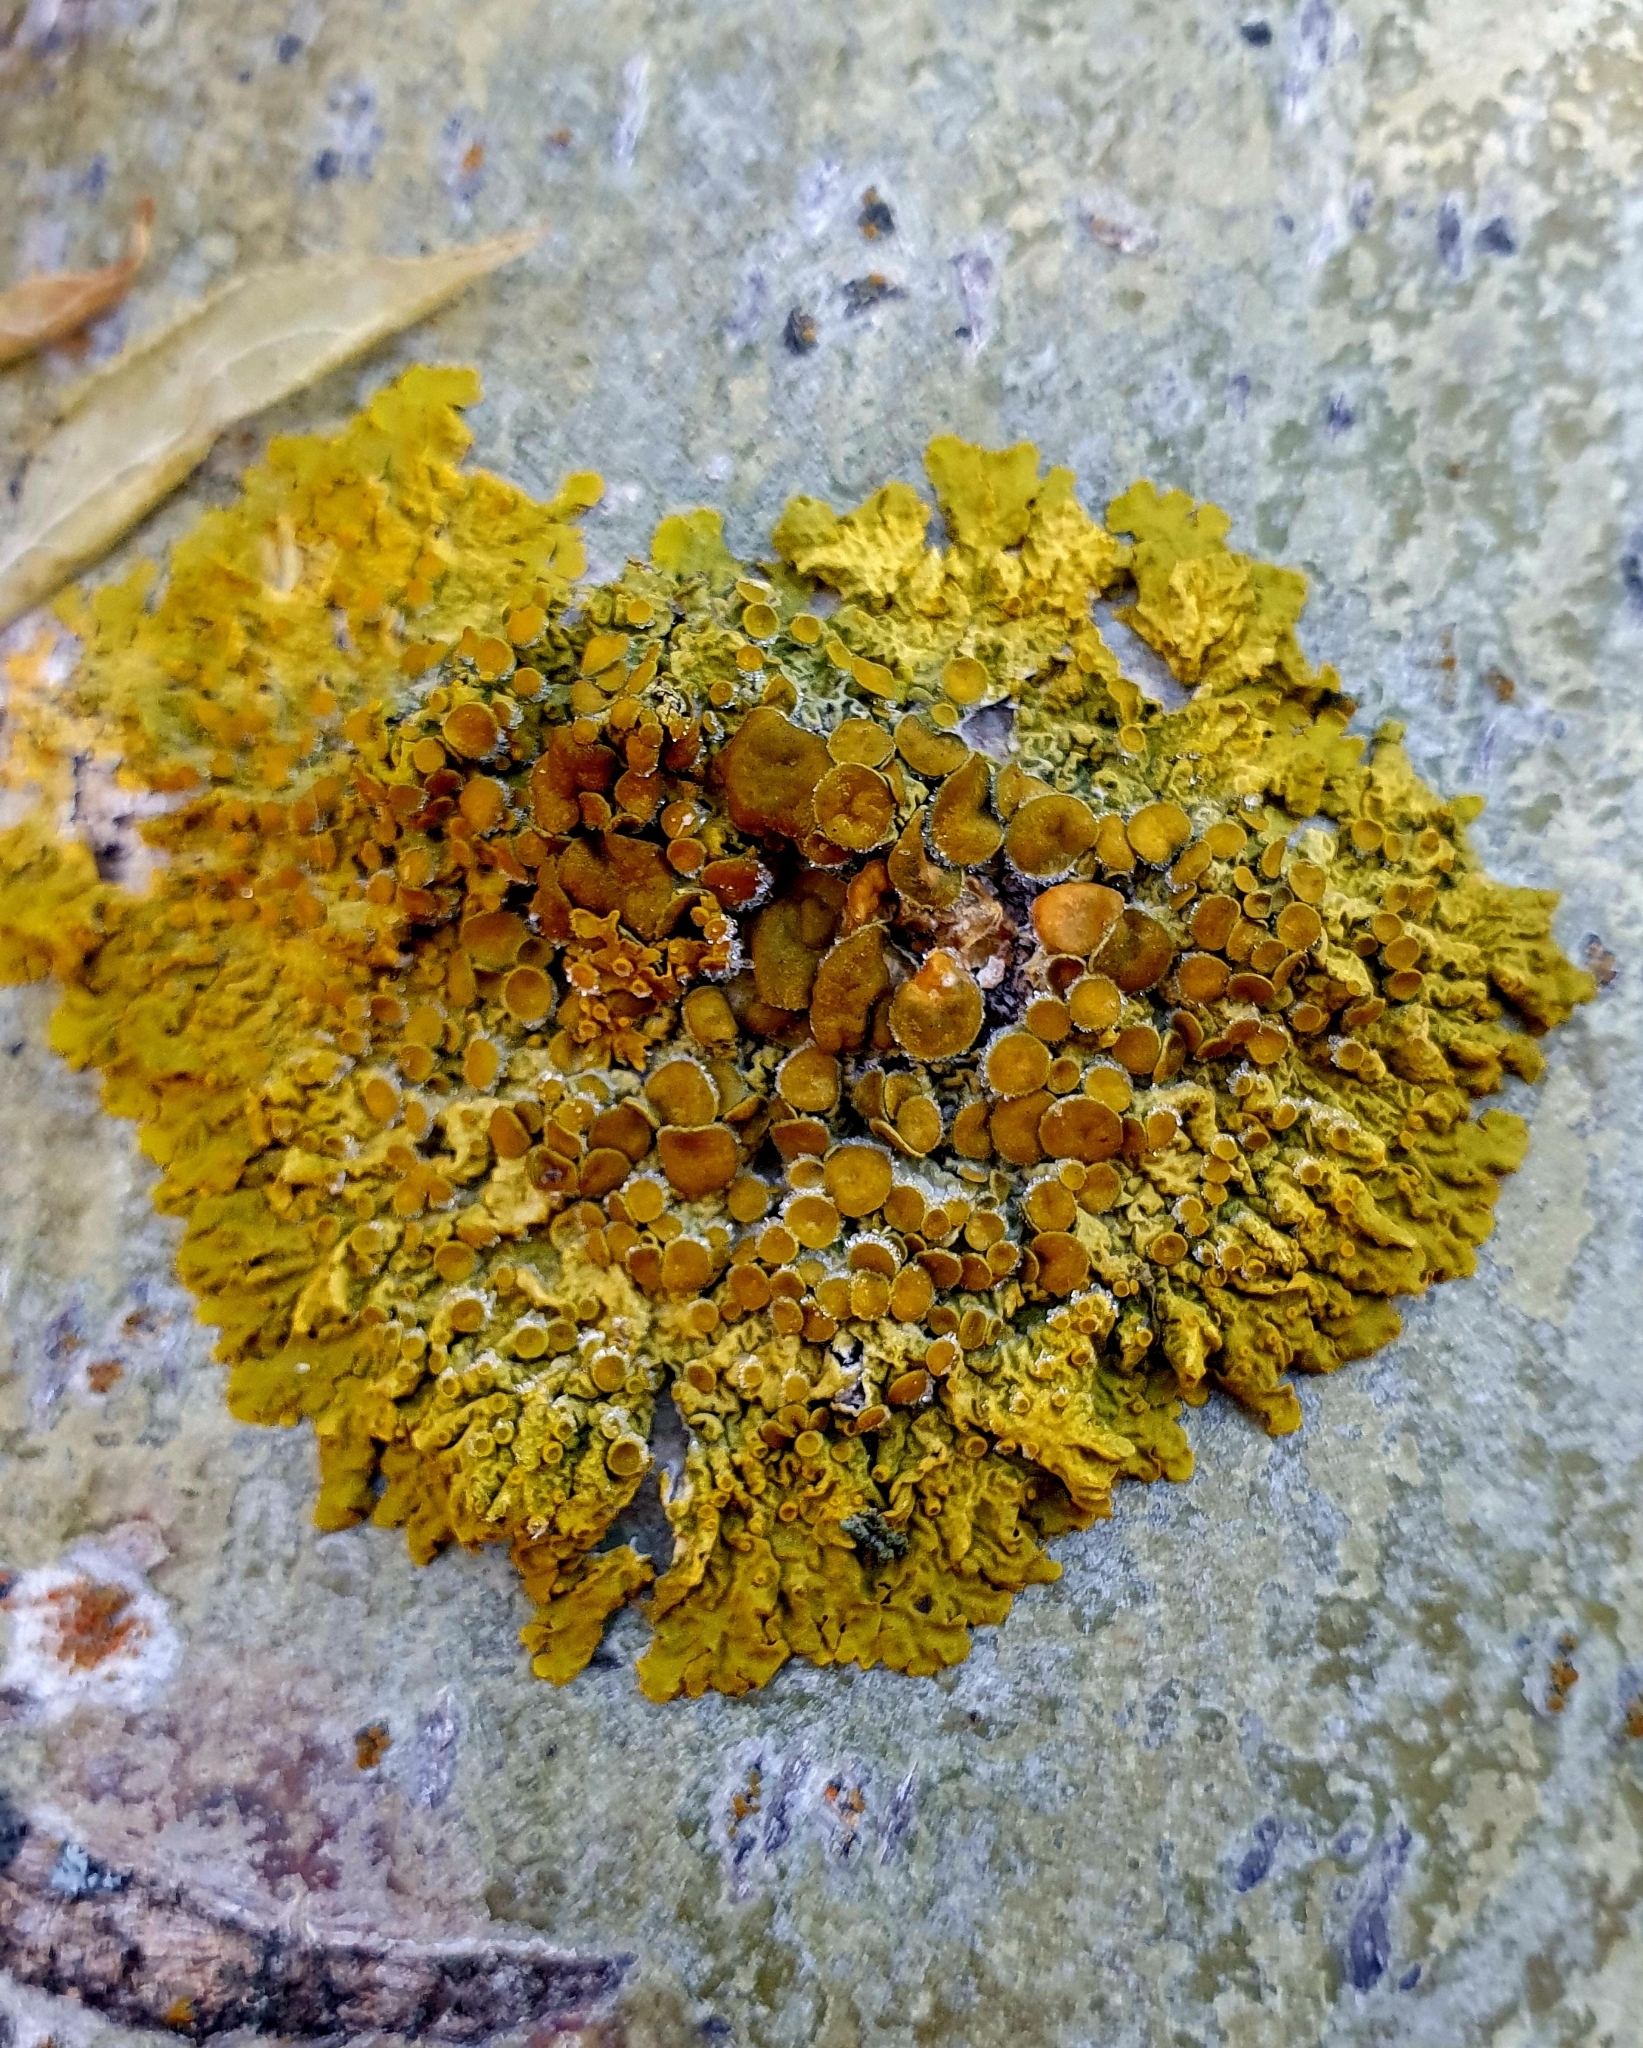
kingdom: Fungi
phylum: Ascomycota
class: Lecanoromycetes
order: Teloschistales
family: Teloschistaceae
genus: Xanthoria
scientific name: Xanthoria parietina
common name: Common orange lichen
